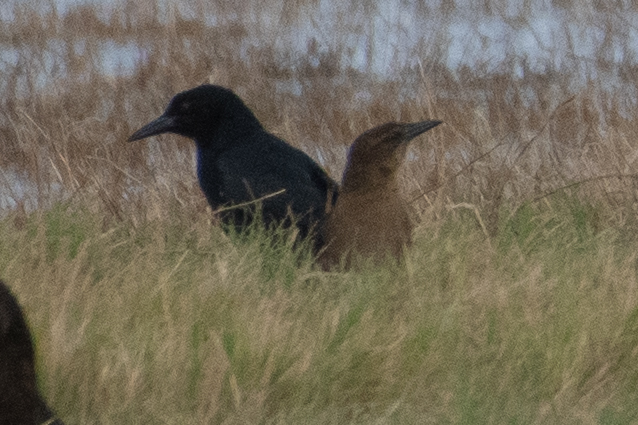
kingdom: Animalia
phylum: Chordata
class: Aves
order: Passeriformes
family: Icteridae
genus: Quiscalus
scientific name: Quiscalus mexicanus
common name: Great-tailed grackle
